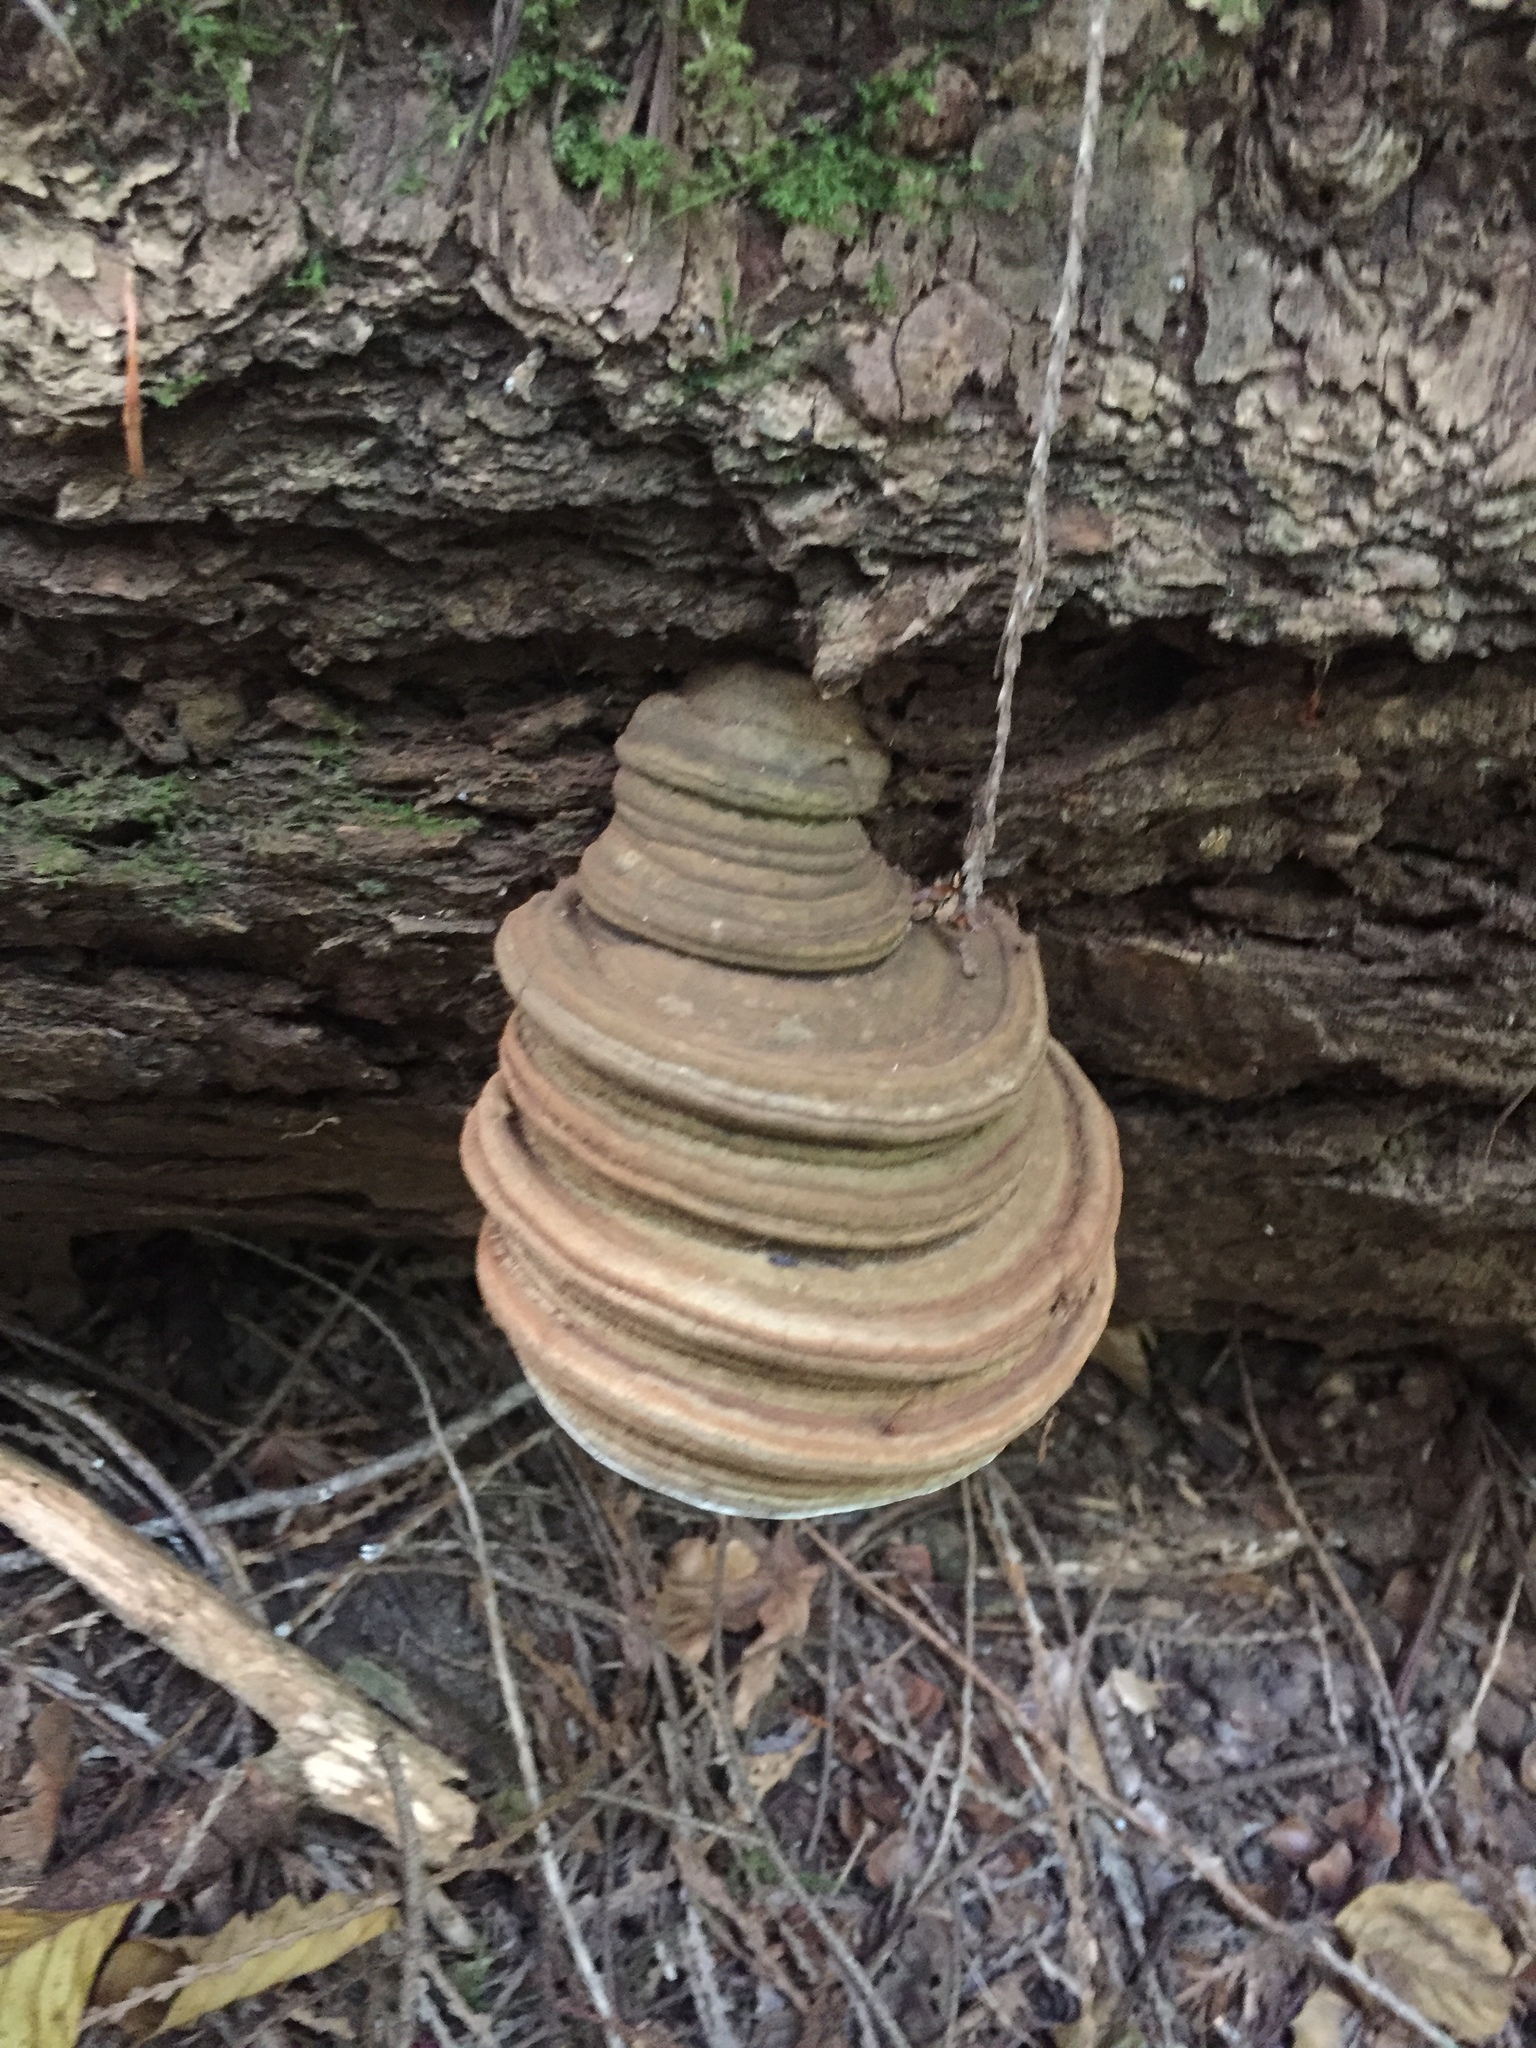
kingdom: Fungi
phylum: Basidiomycota
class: Agaricomycetes
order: Polyporales
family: Polyporaceae
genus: Ganoderma
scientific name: Ganoderma brownii
